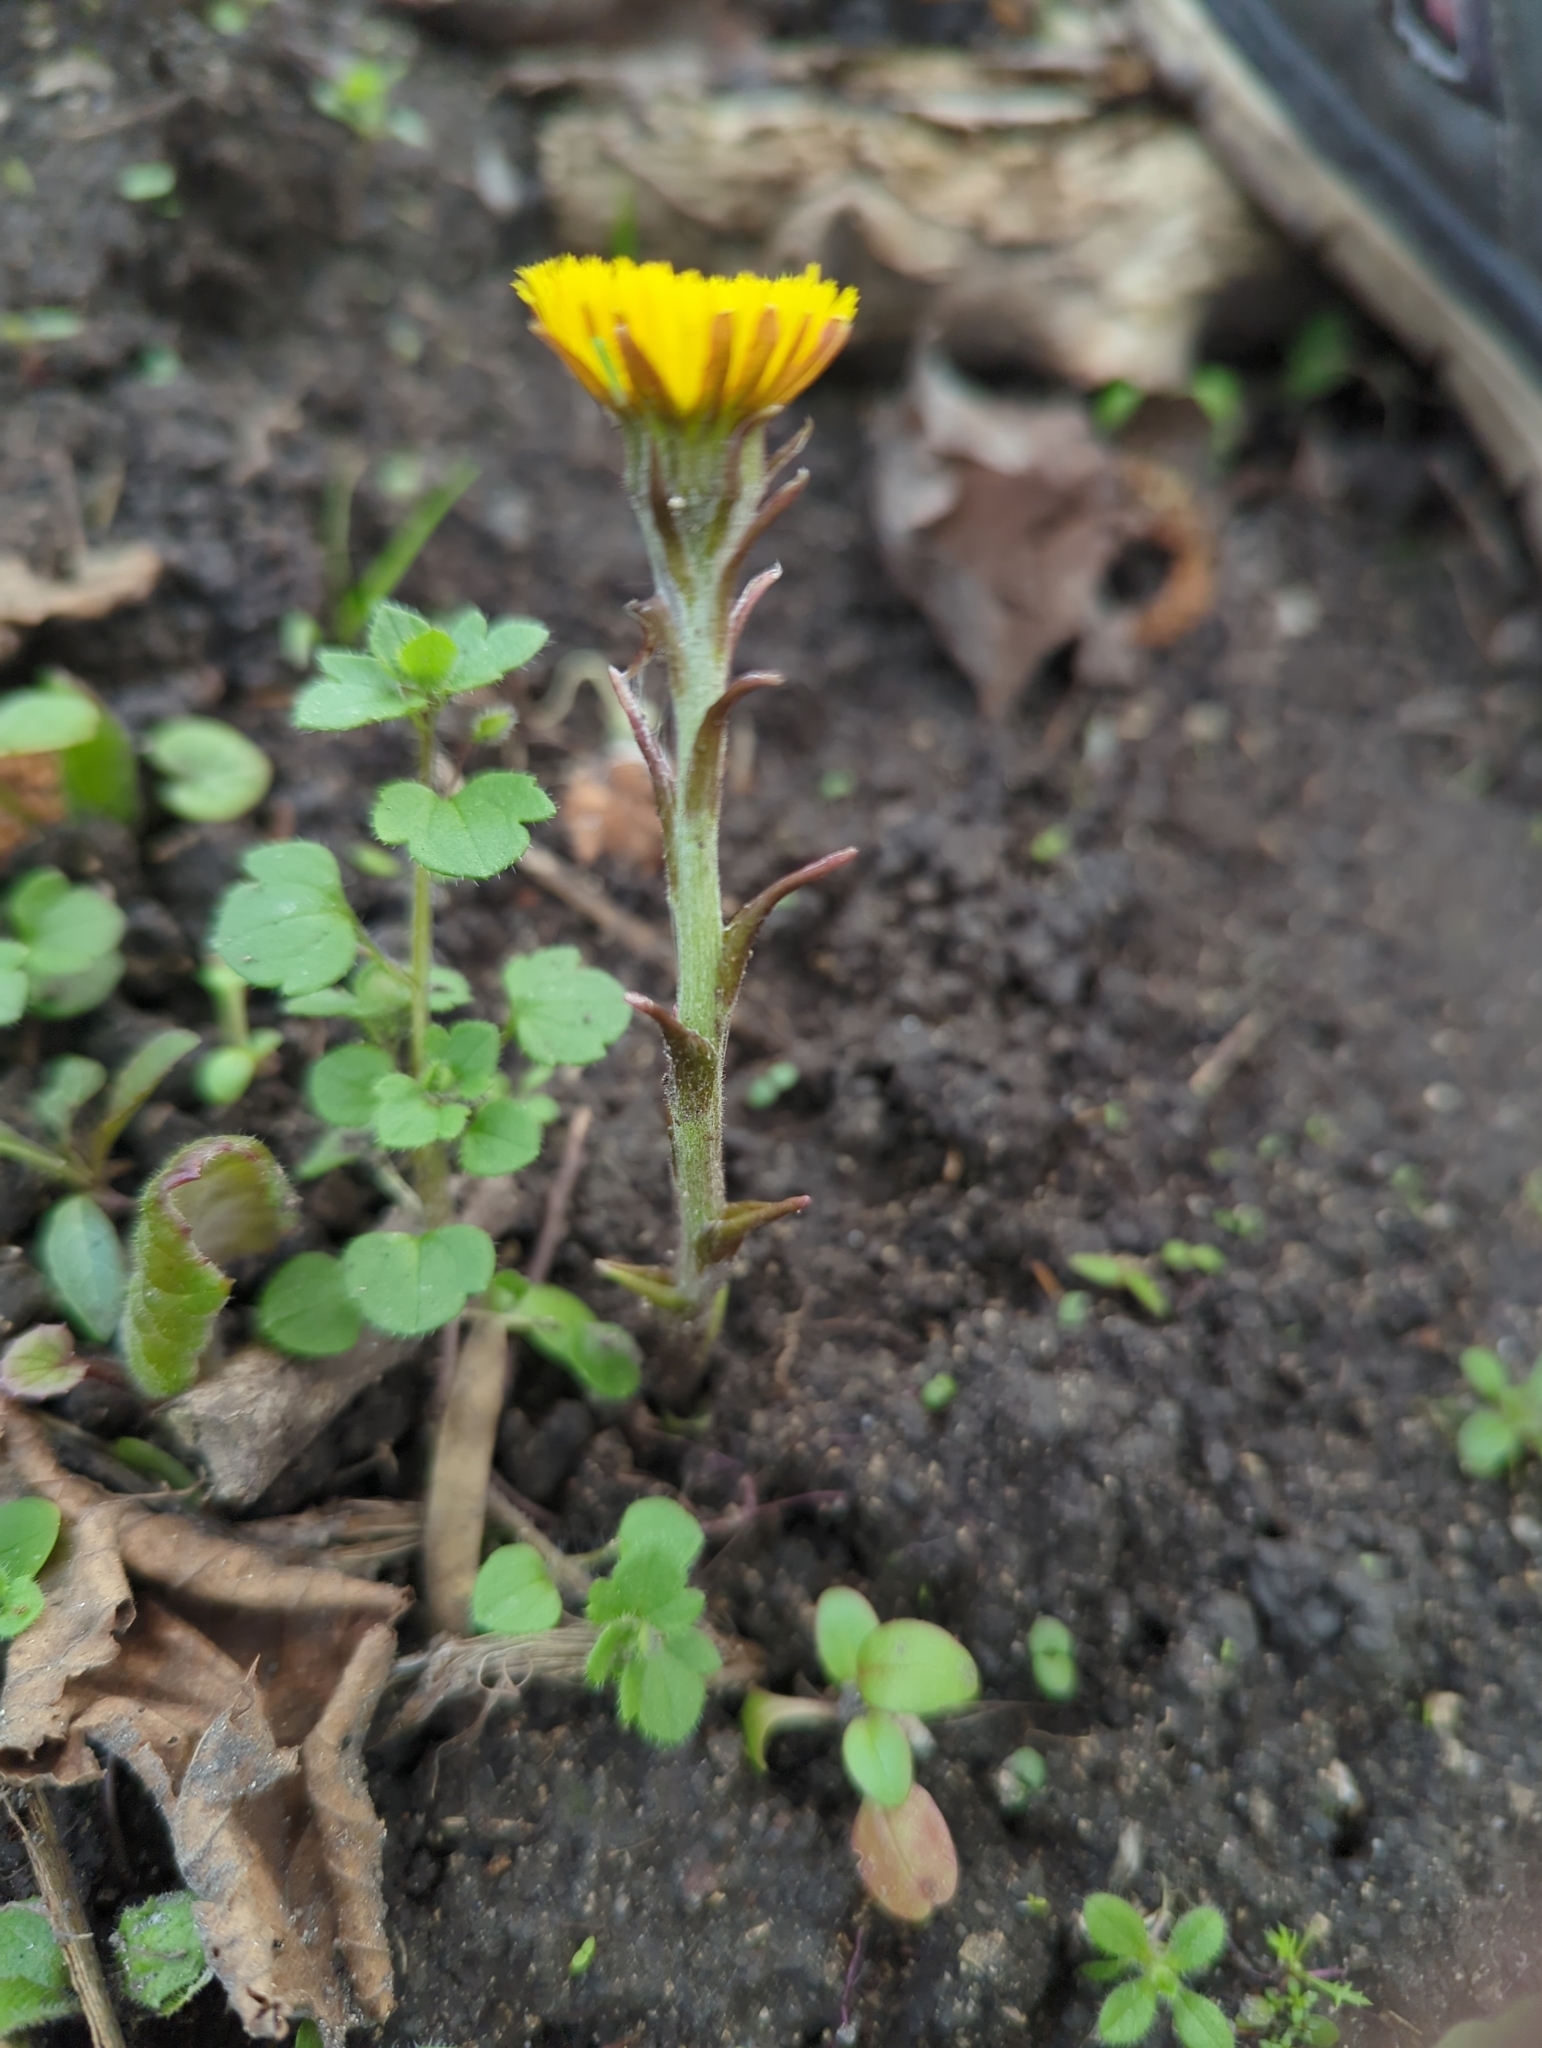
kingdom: Plantae
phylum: Tracheophyta
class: Magnoliopsida
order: Asterales
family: Asteraceae
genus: Tussilago
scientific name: Tussilago farfara
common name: Coltsfoot
